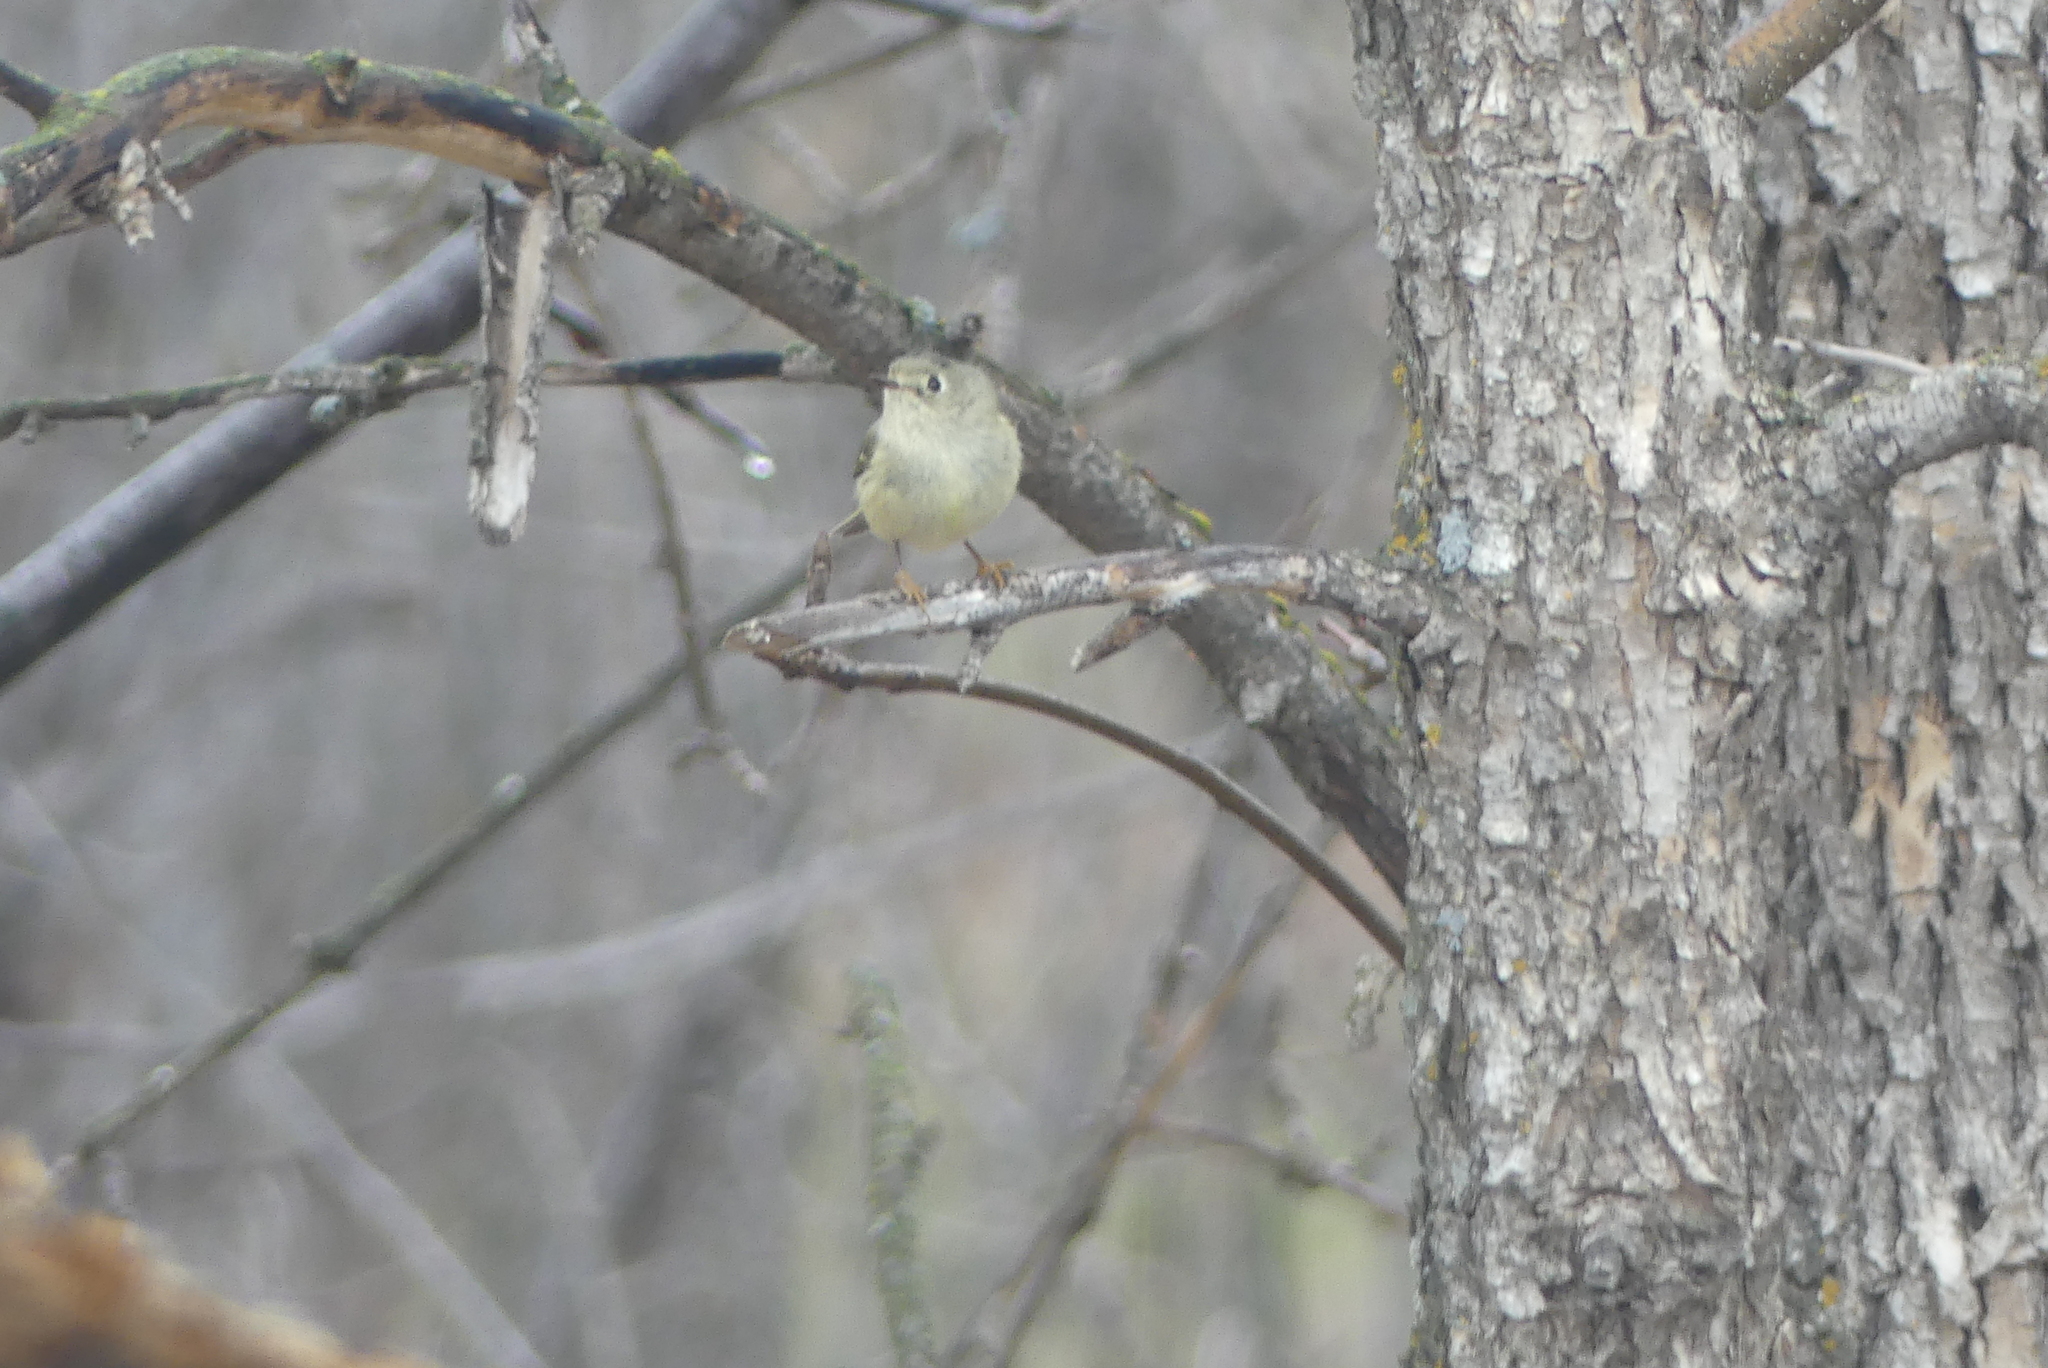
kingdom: Animalia
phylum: Chordata
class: Aves
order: Passeriformes
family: Regulidae
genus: Regulus
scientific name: Regulus calendula
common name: Ruby-crowned kinglet
